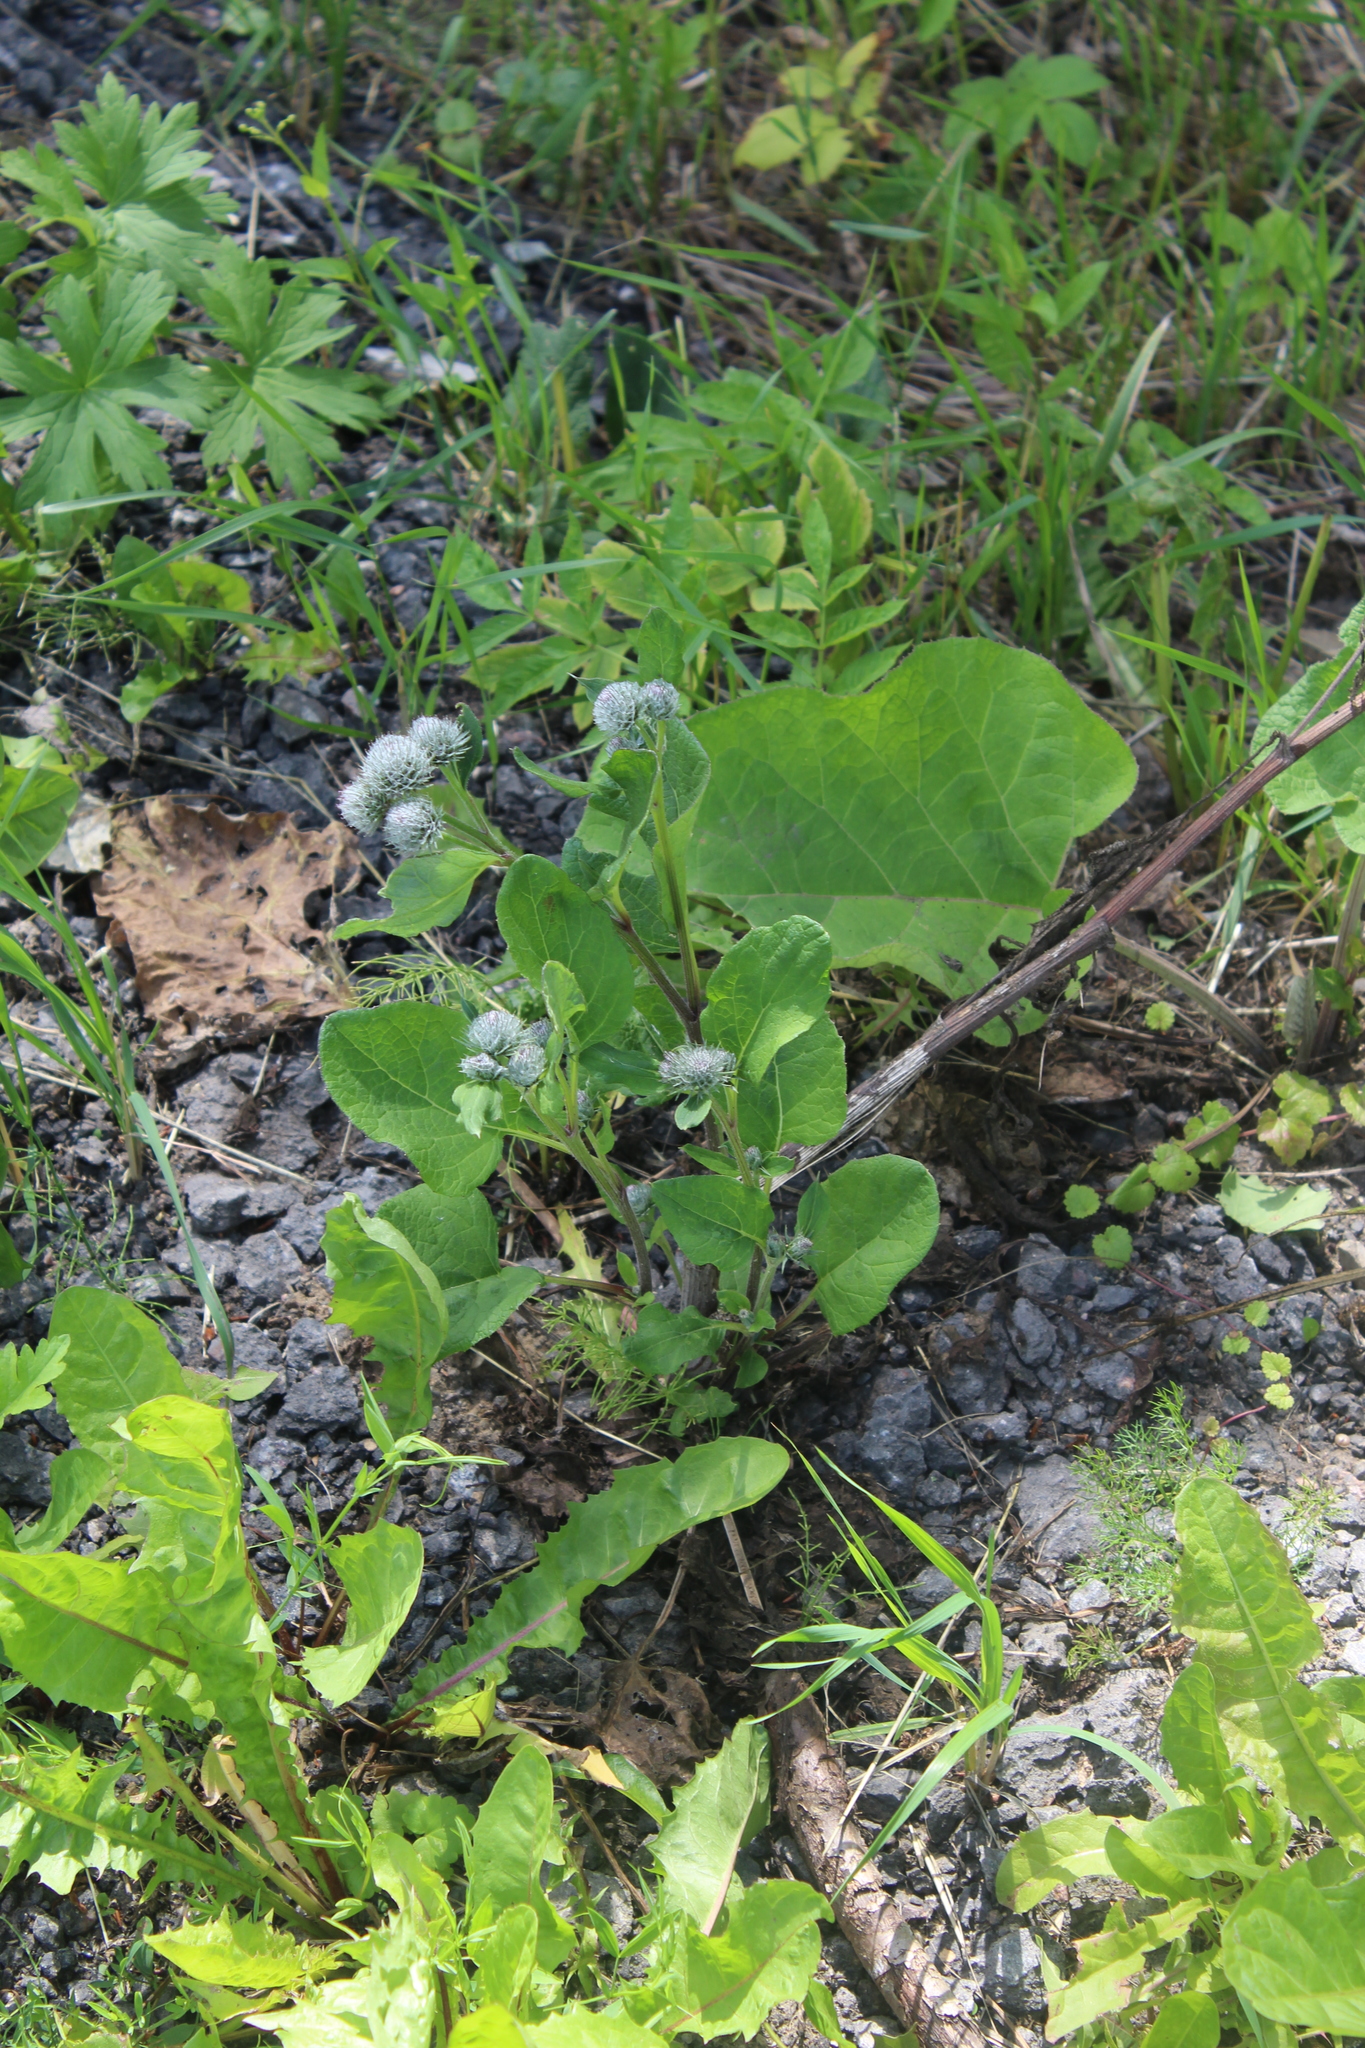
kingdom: Plantae
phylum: Tracheophyta
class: Magnoliopsida
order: Asterales
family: Asteraceae
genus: Arctium
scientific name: Arctium tomentosum
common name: Woolly burdock
